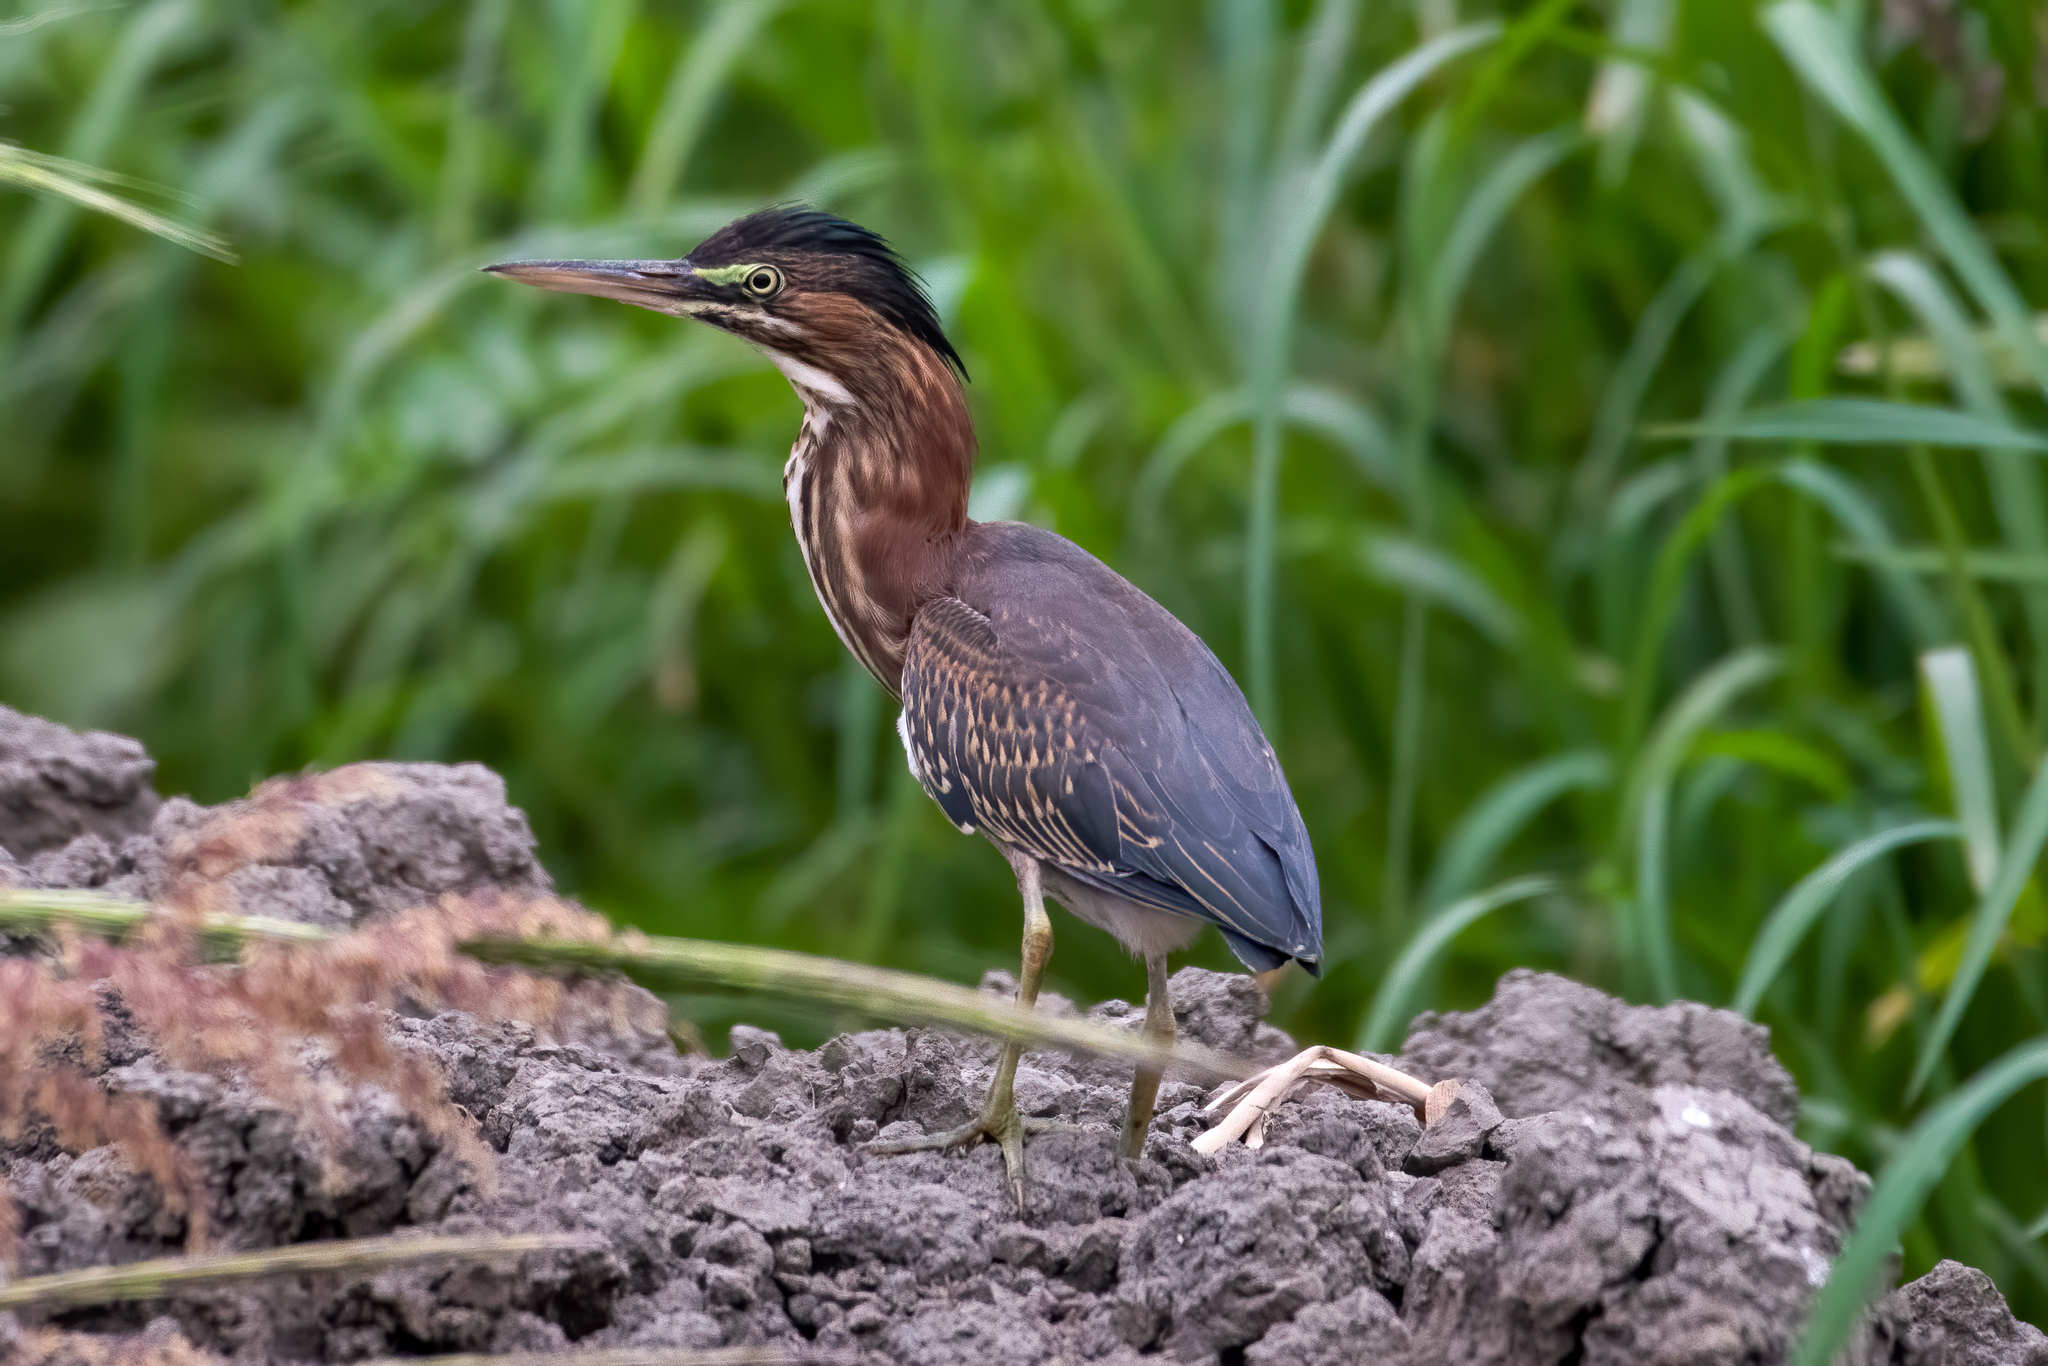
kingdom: Animalia
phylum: Chordata
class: Aves
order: Pelecaniformes
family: Ardeidae
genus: Butorides
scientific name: Butorides virescens
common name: Green heron
